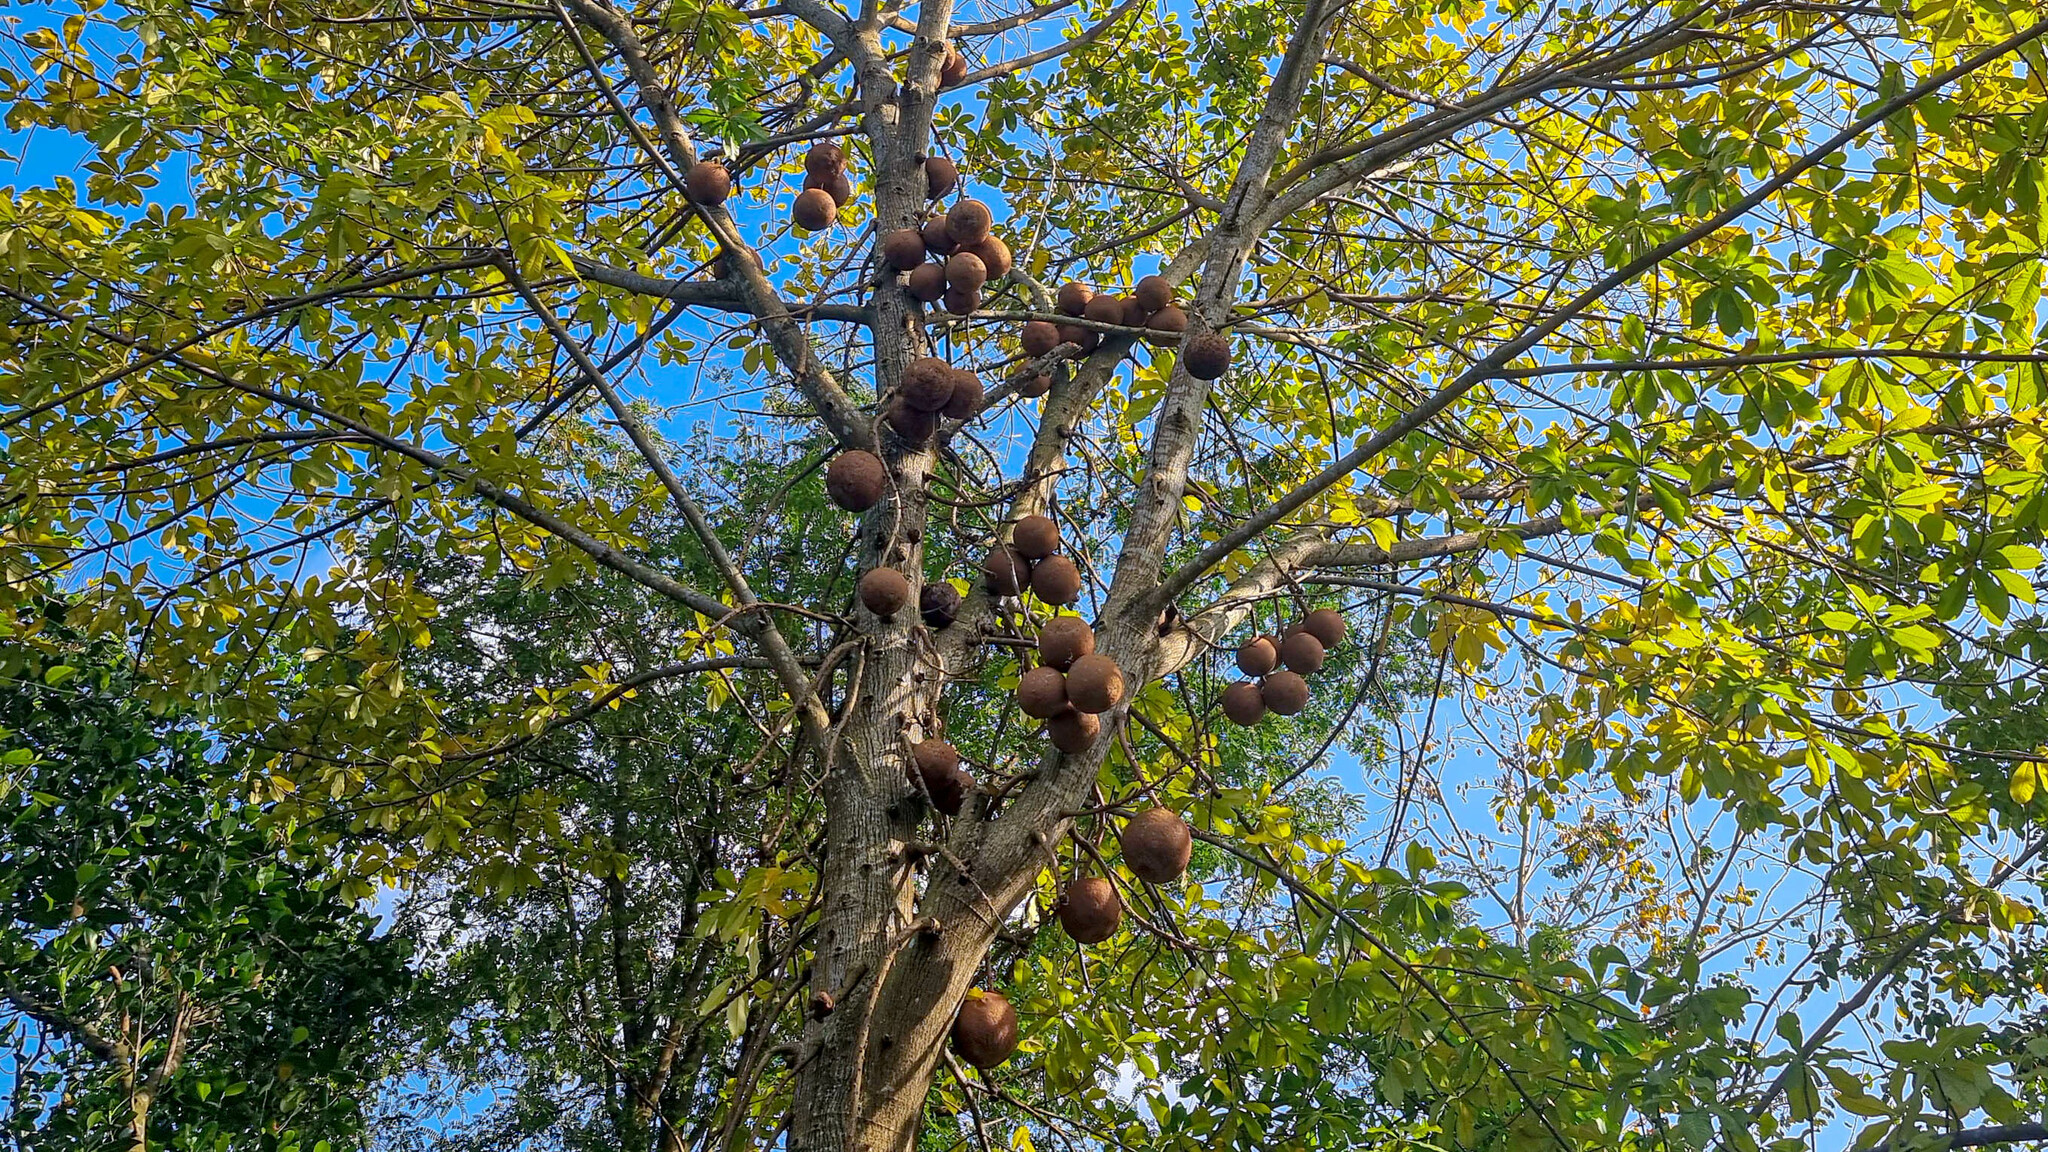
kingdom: Plantae
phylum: Tracheophyta
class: Magnoliopsida
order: Ericales
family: Lecythidaceae
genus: Couroupita
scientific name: Couroupita guianensis
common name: Cannonball tree
